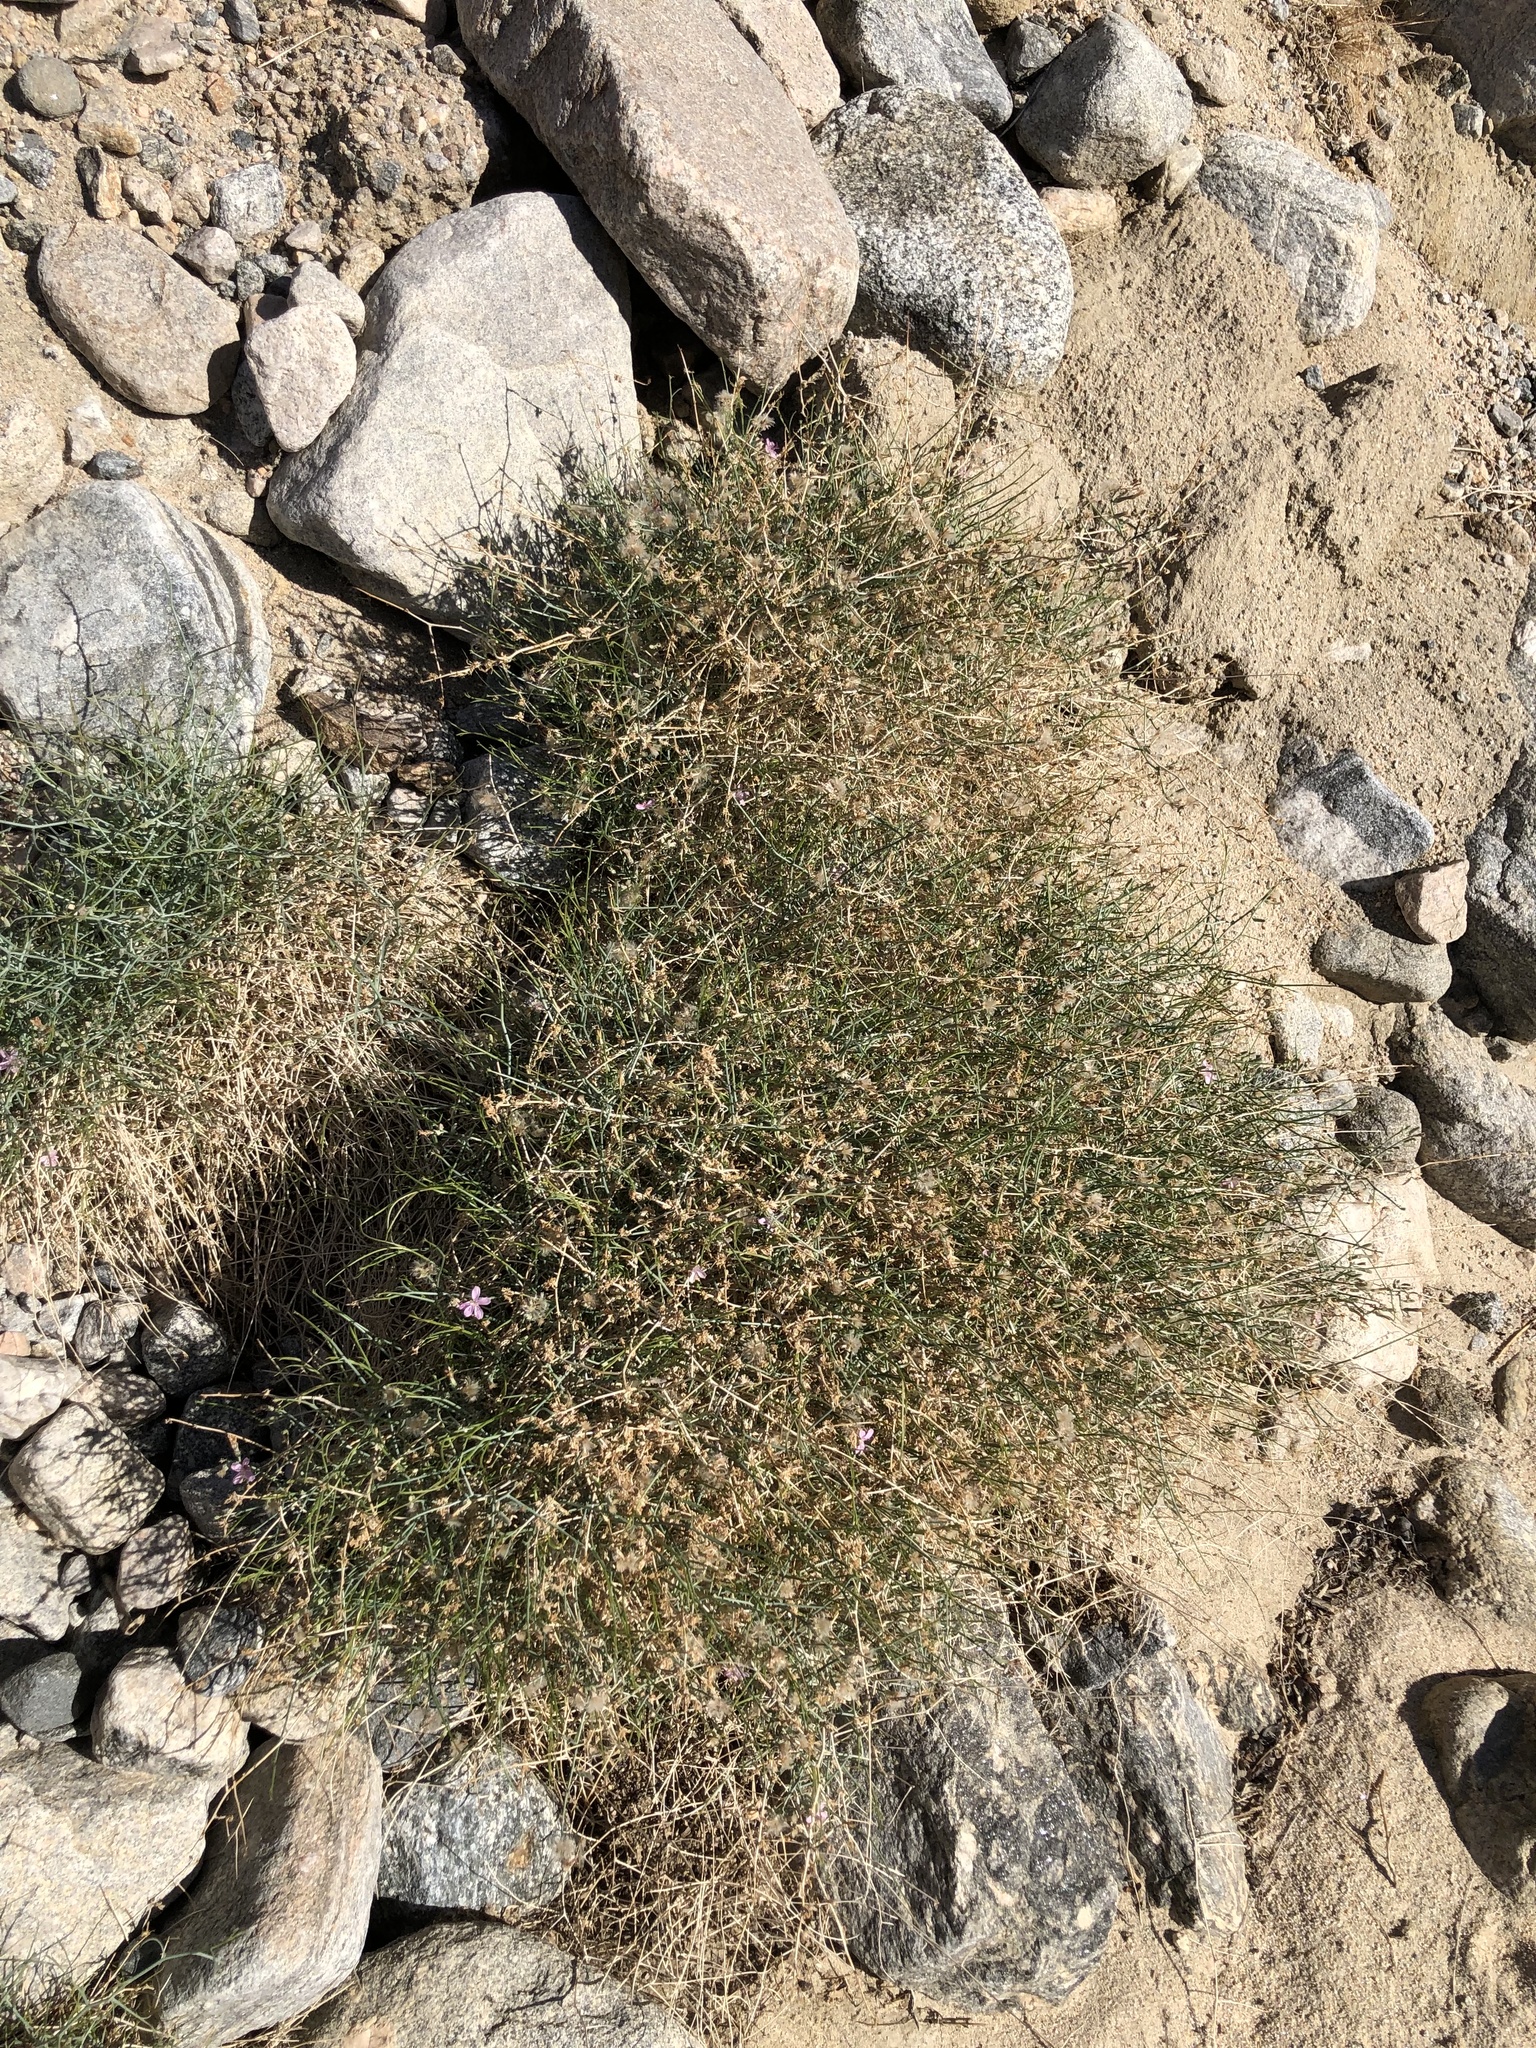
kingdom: Plantae
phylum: Tracheophyta
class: Magnoliopsida
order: Asterales
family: Asteraceae
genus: Stephanomeria
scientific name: Stephanomeria pauciflora
